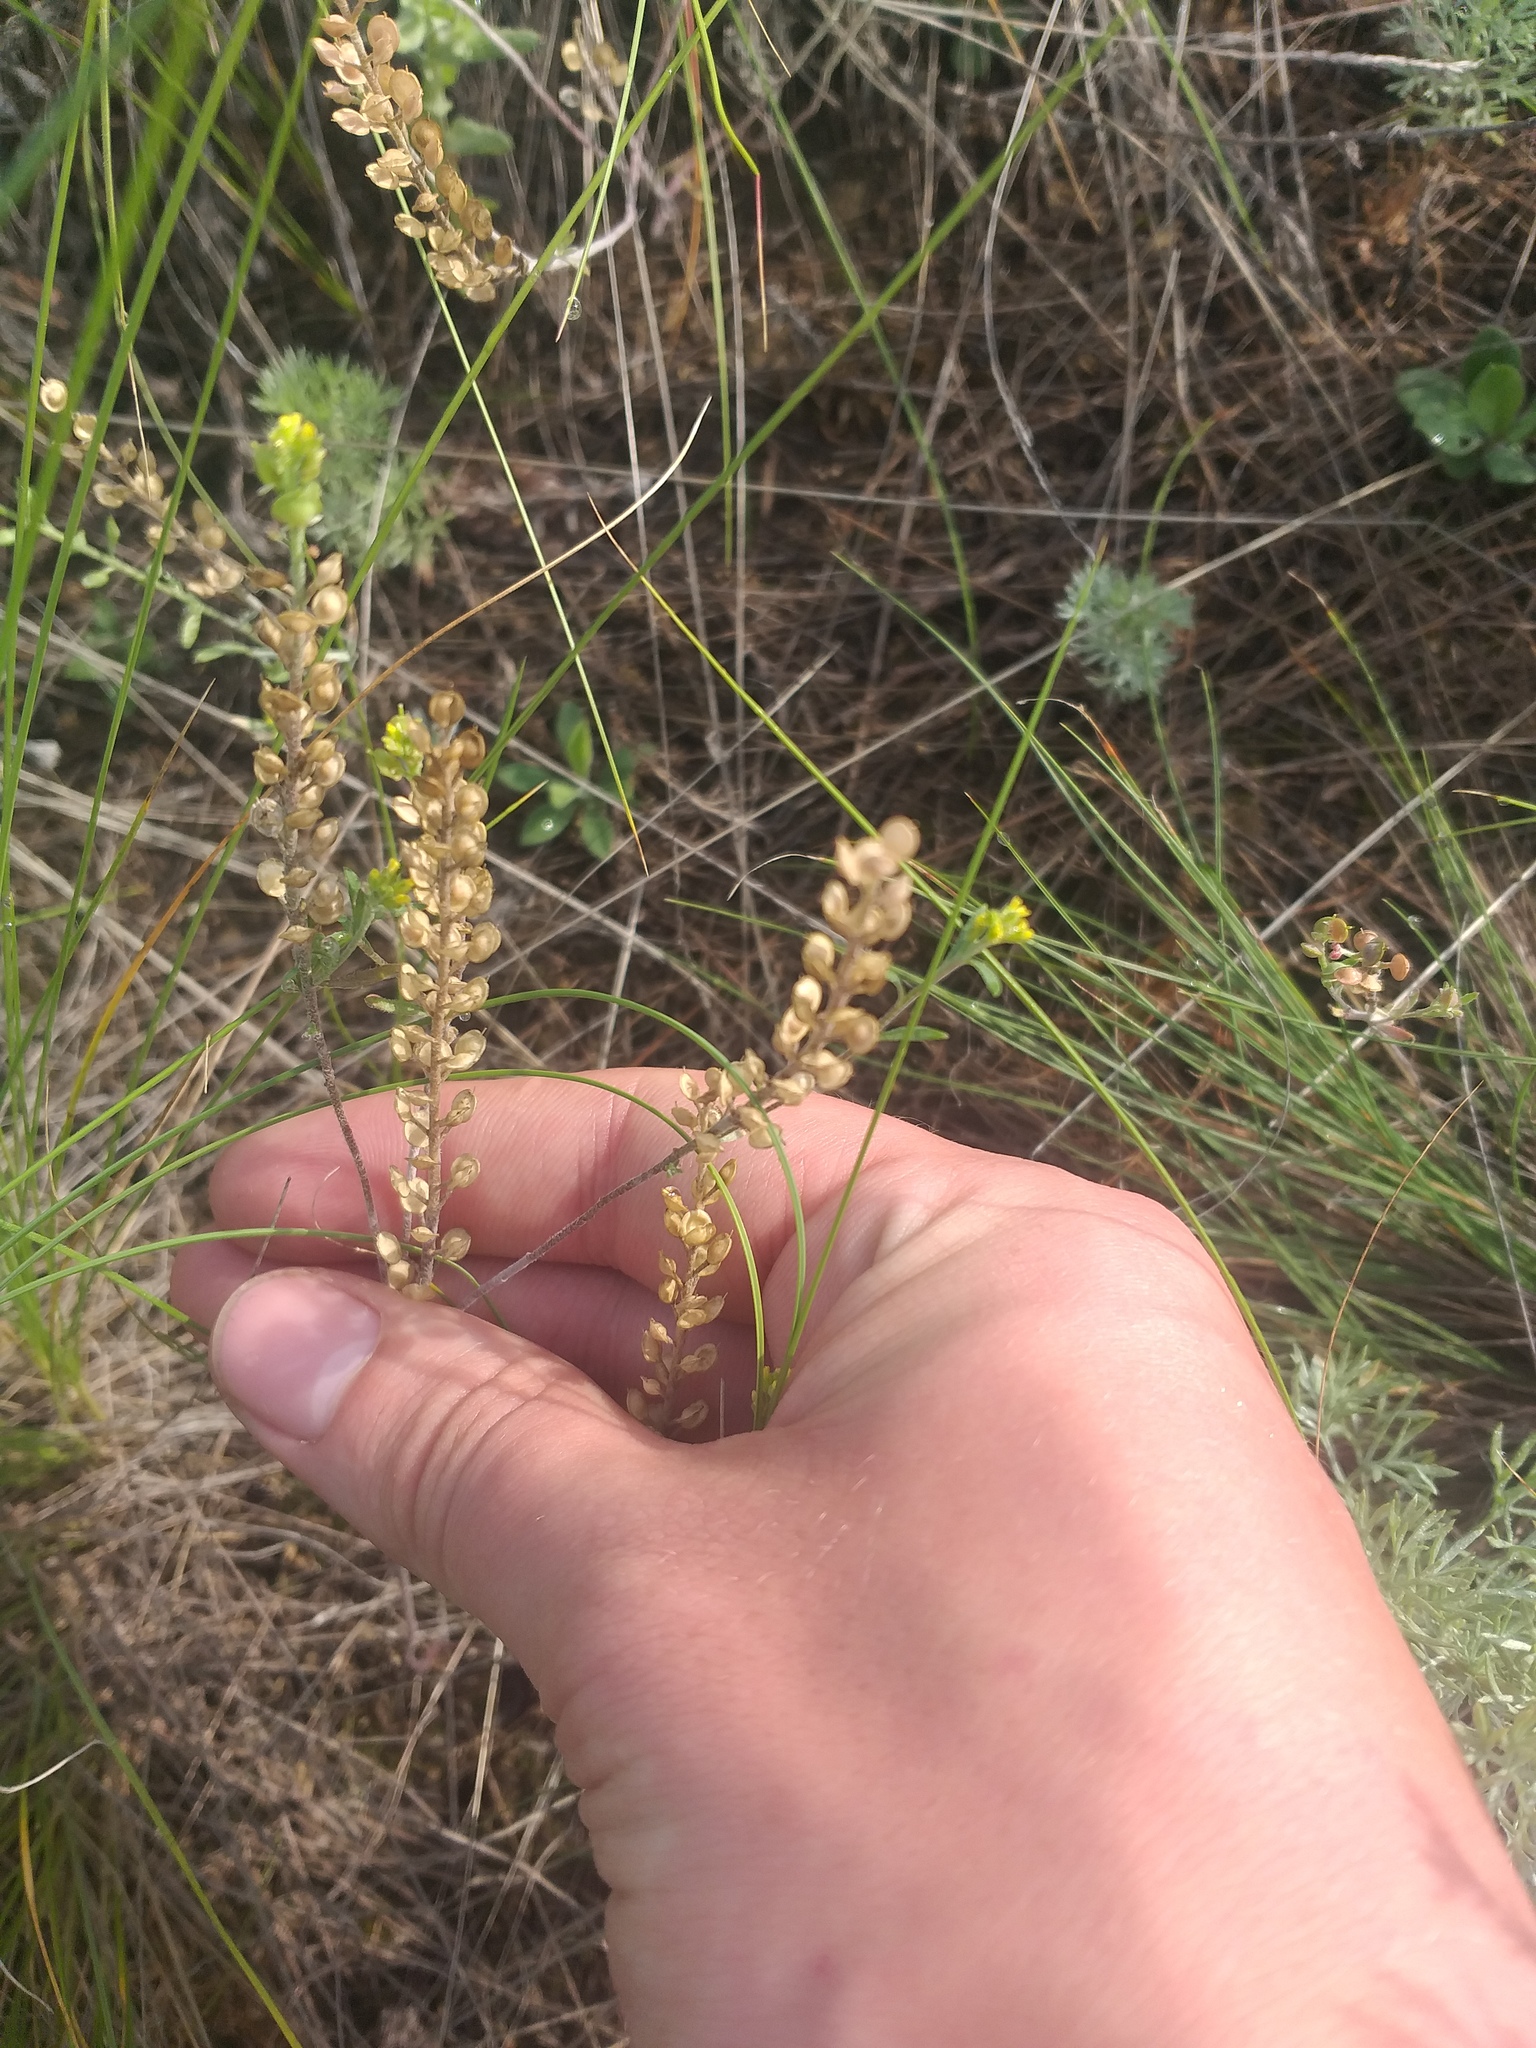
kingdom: Plantae
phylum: Tracheophyta
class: Magnoliopsida
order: Brassicales
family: Brassicaceae
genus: Alyssum
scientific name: Alyssum turkestanicum
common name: Desert alyssum
